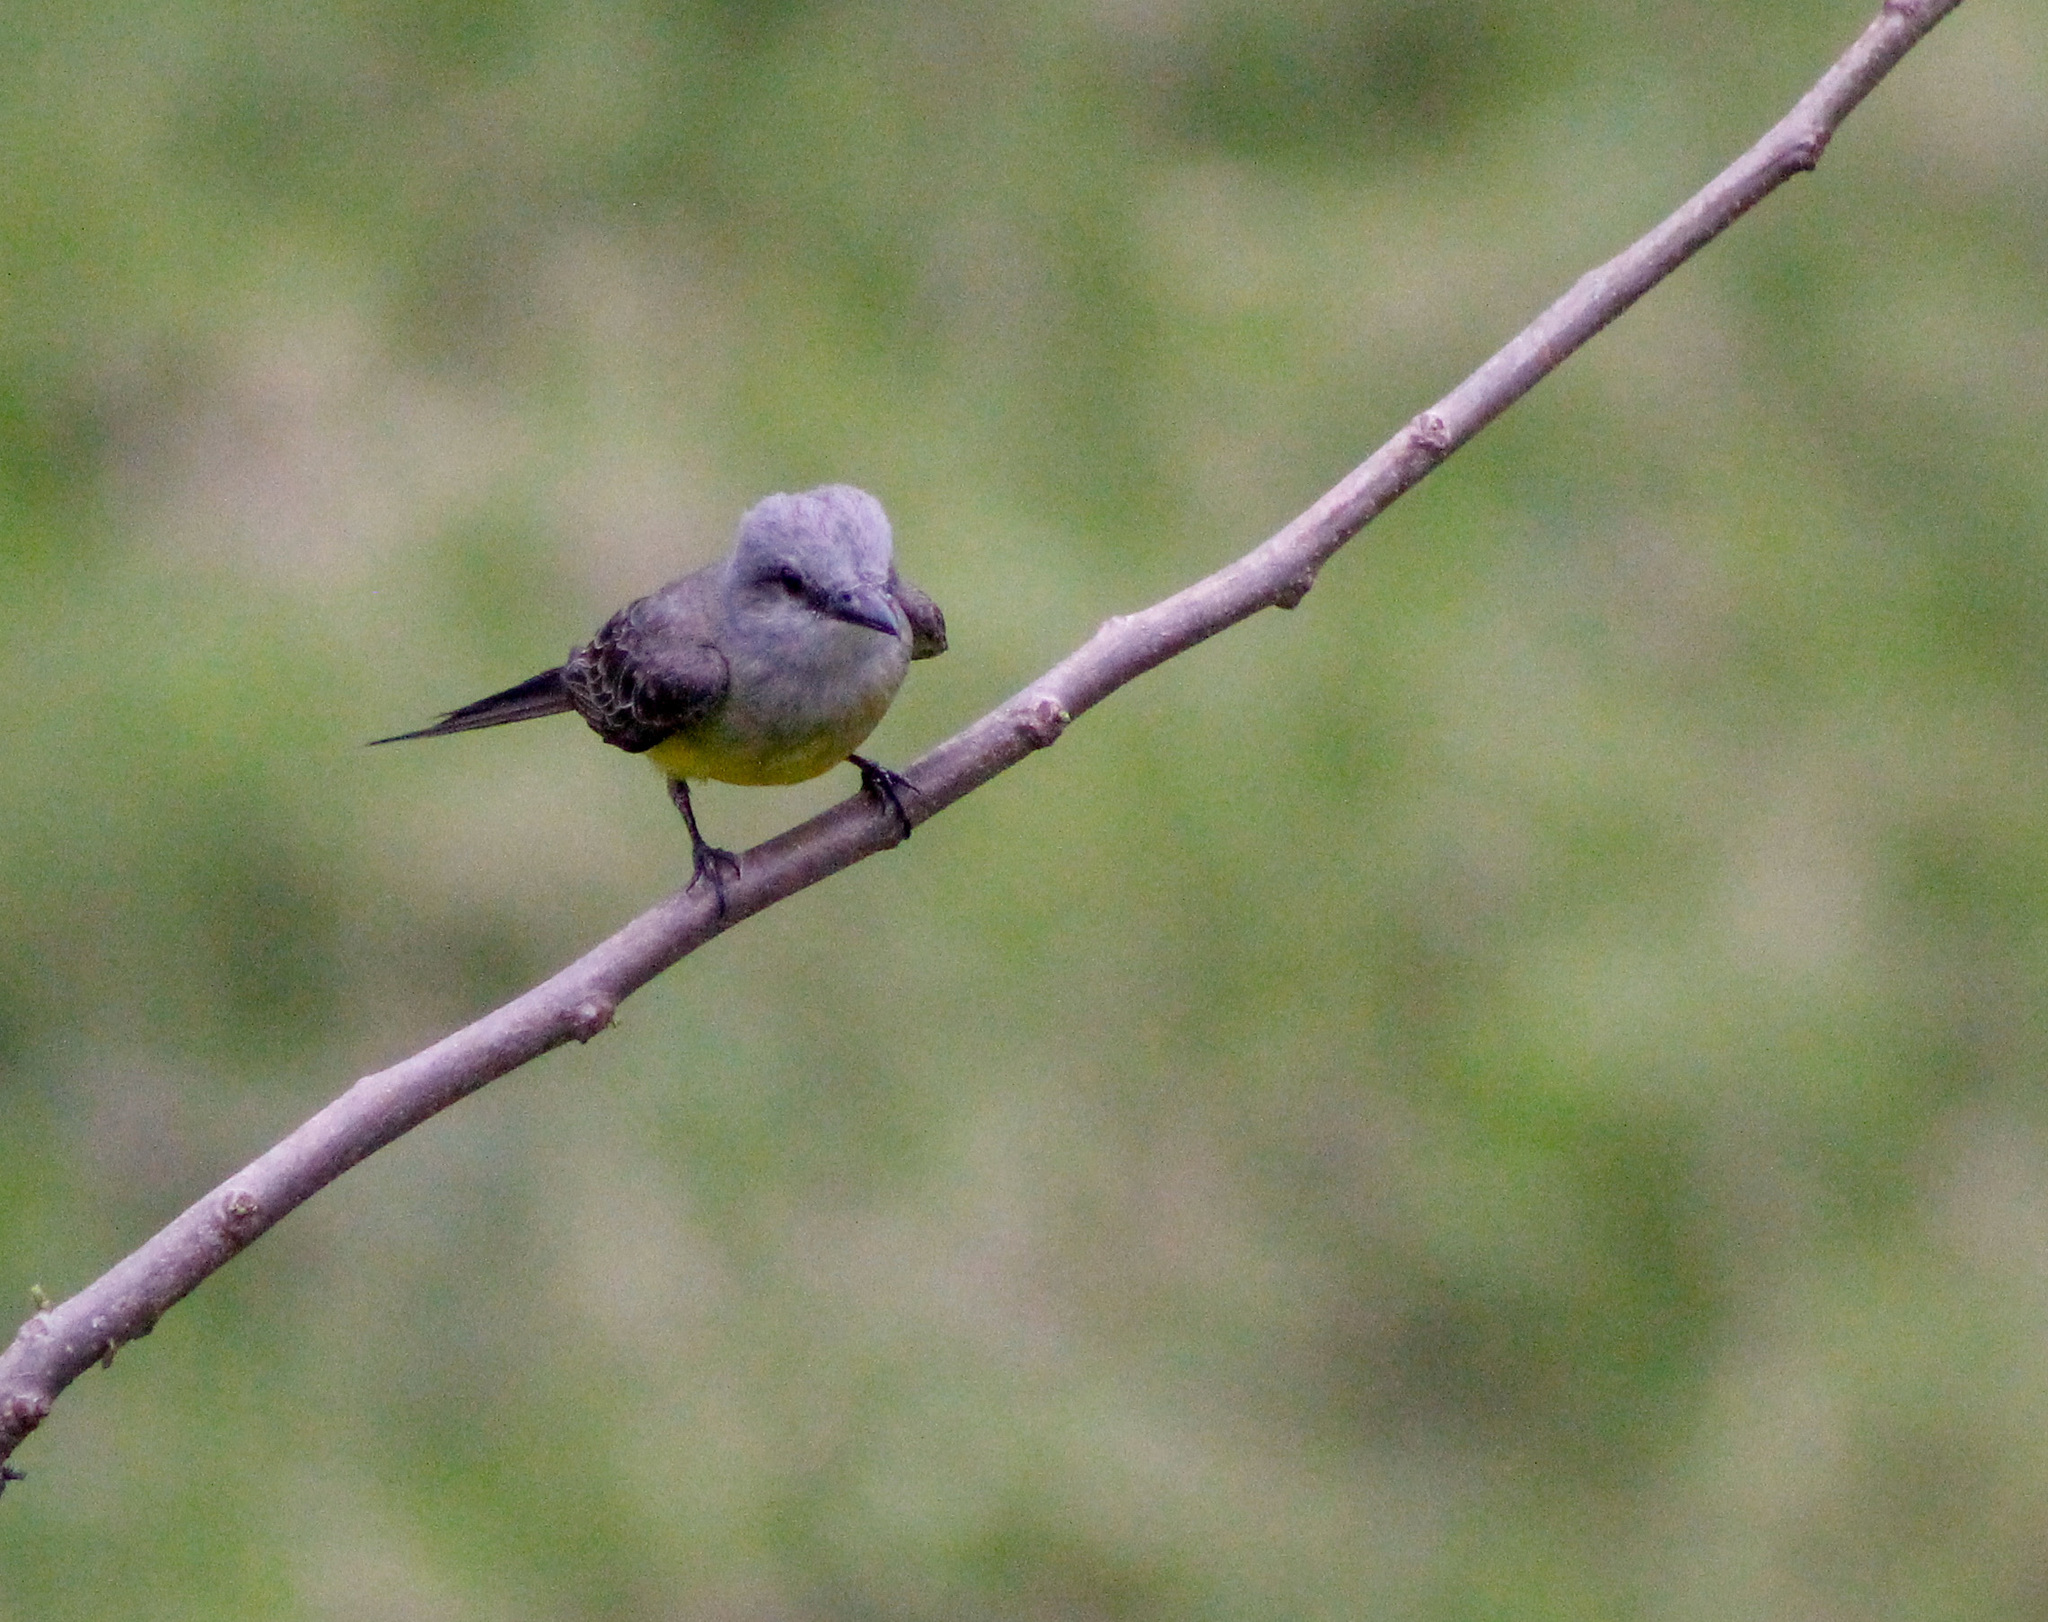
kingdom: Animalia
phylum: Chordata
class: Aves
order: Passeriformes
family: Tyrannidae
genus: Tyrannus
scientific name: Tyrannus melancholicus
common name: Tropical kingbird
